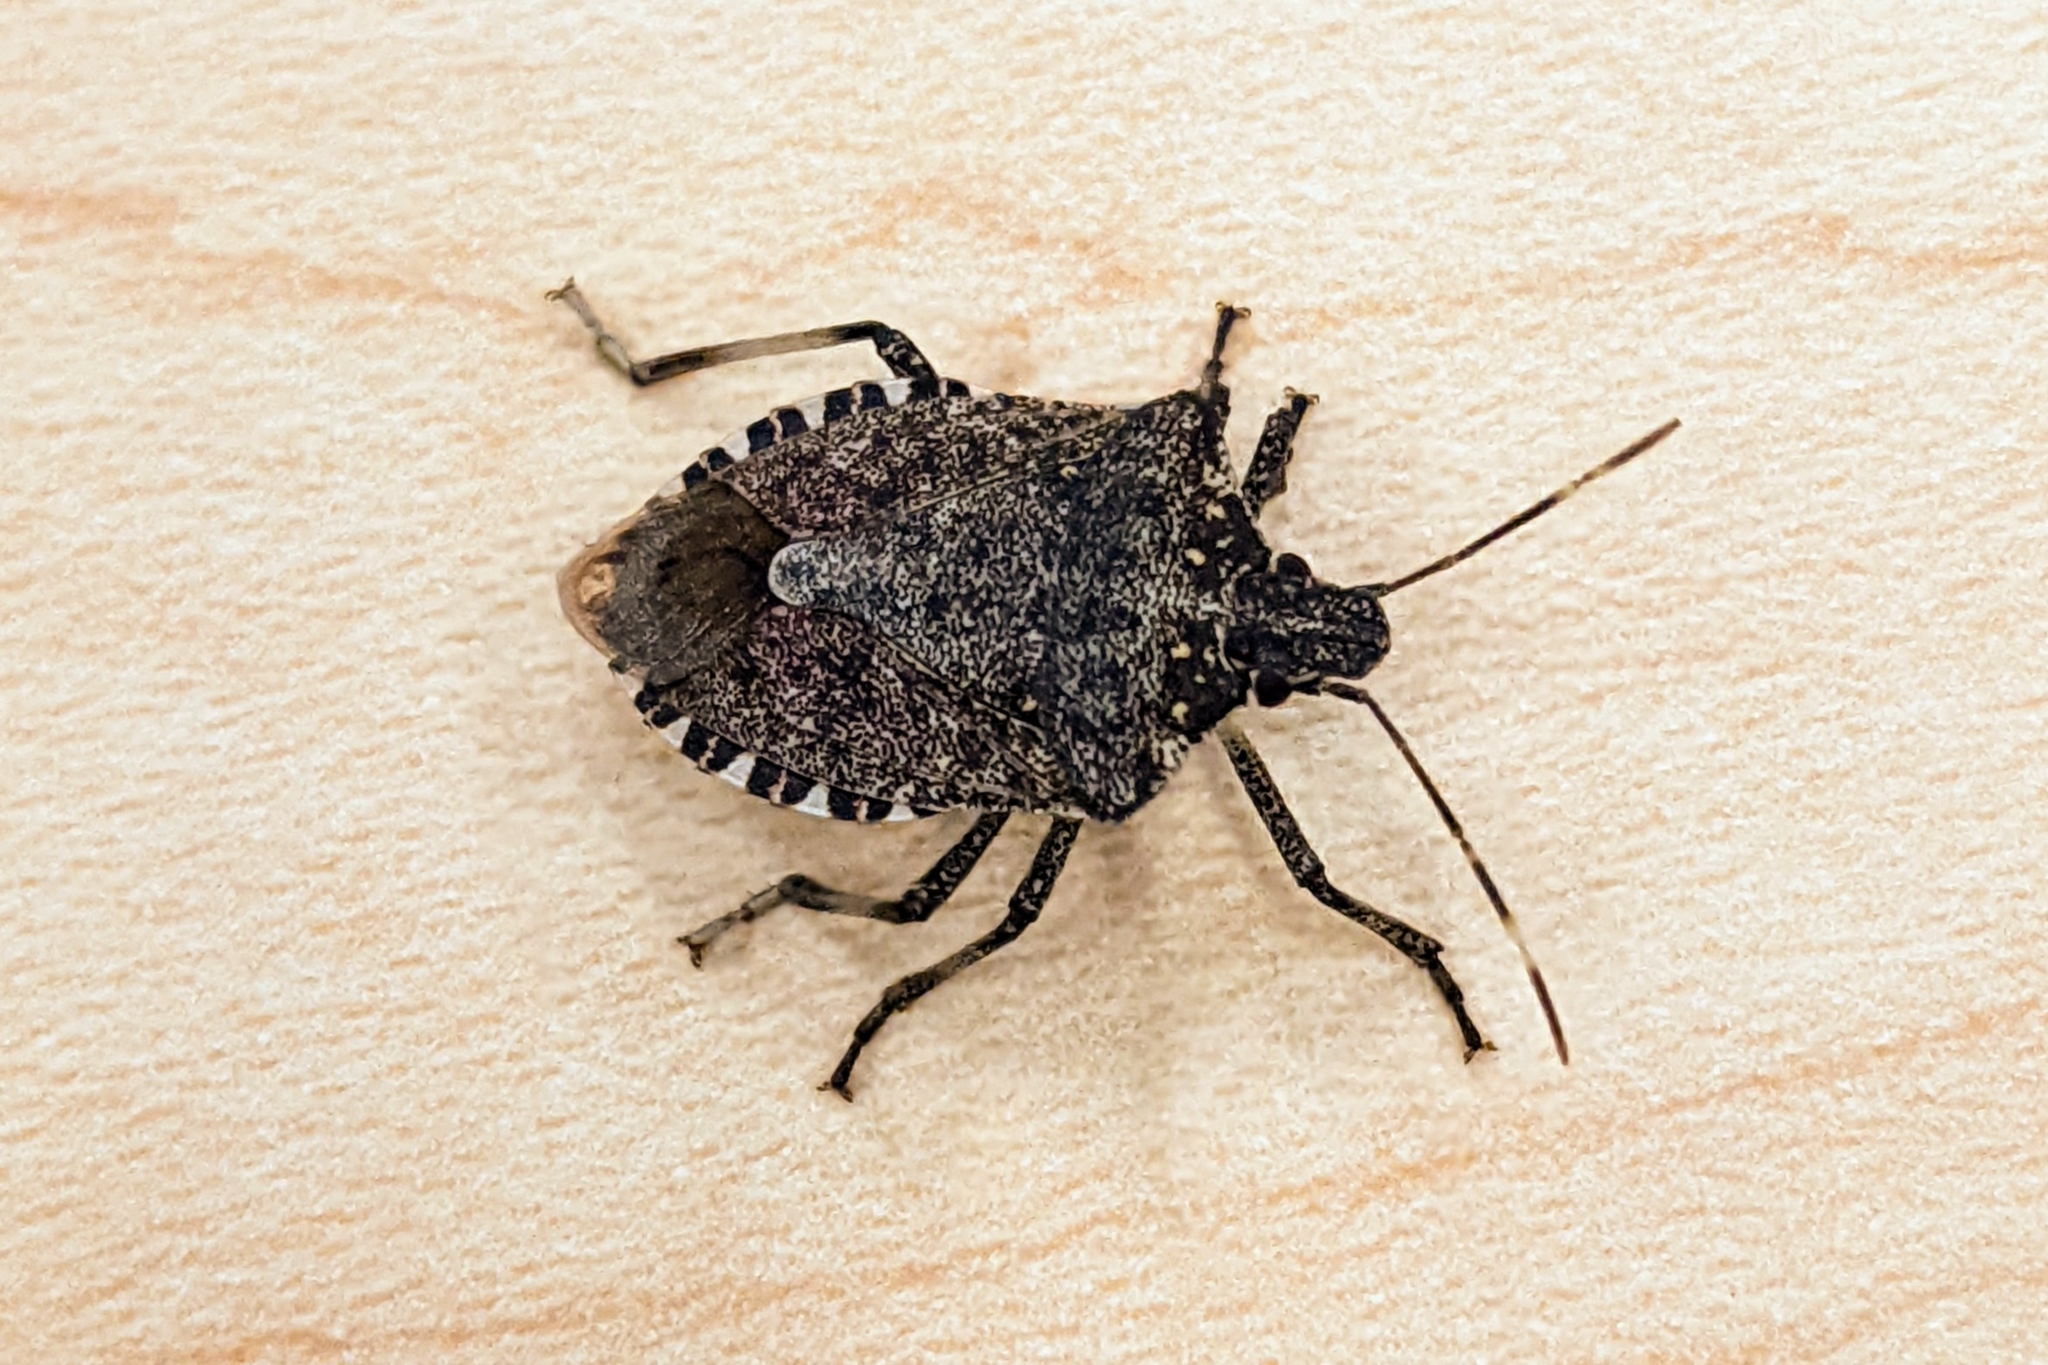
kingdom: Animalia
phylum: Arthropoda
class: Insecta
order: Hemiptera
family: Pentatomidae
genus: Halyomorpha
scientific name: Halyomorpha halys
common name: Brown marmorated stink bug
